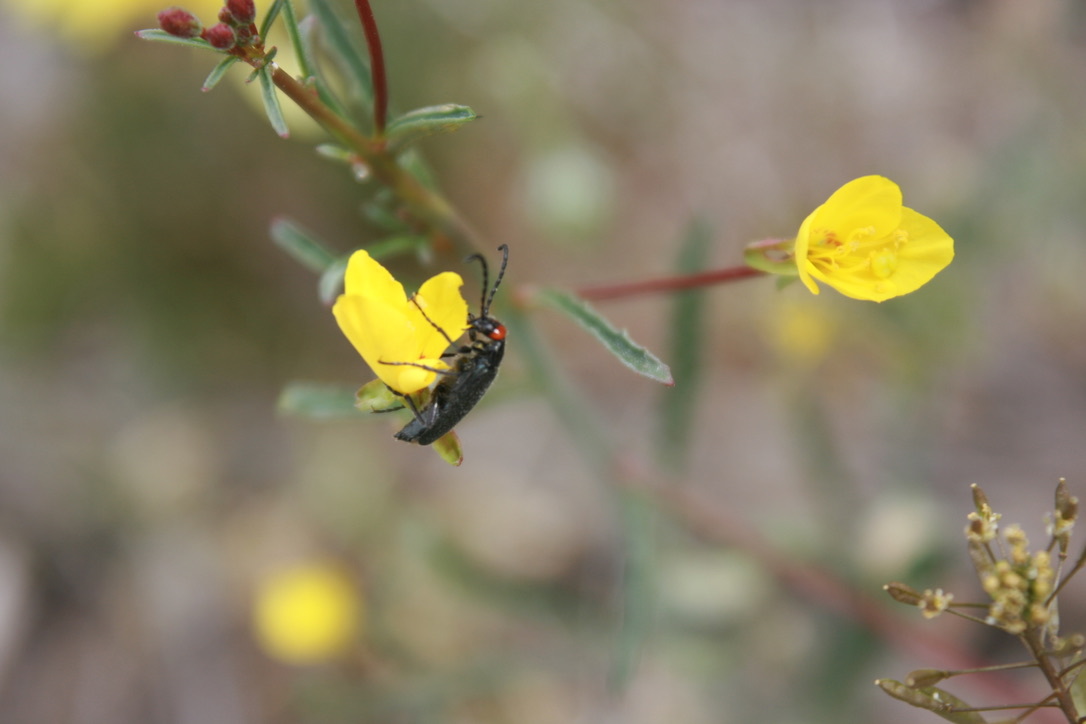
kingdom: Animalia
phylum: Arthropoda
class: Insecta
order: Coleoptera
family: Meloidae
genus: Lytta
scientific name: Lytta auriculata
